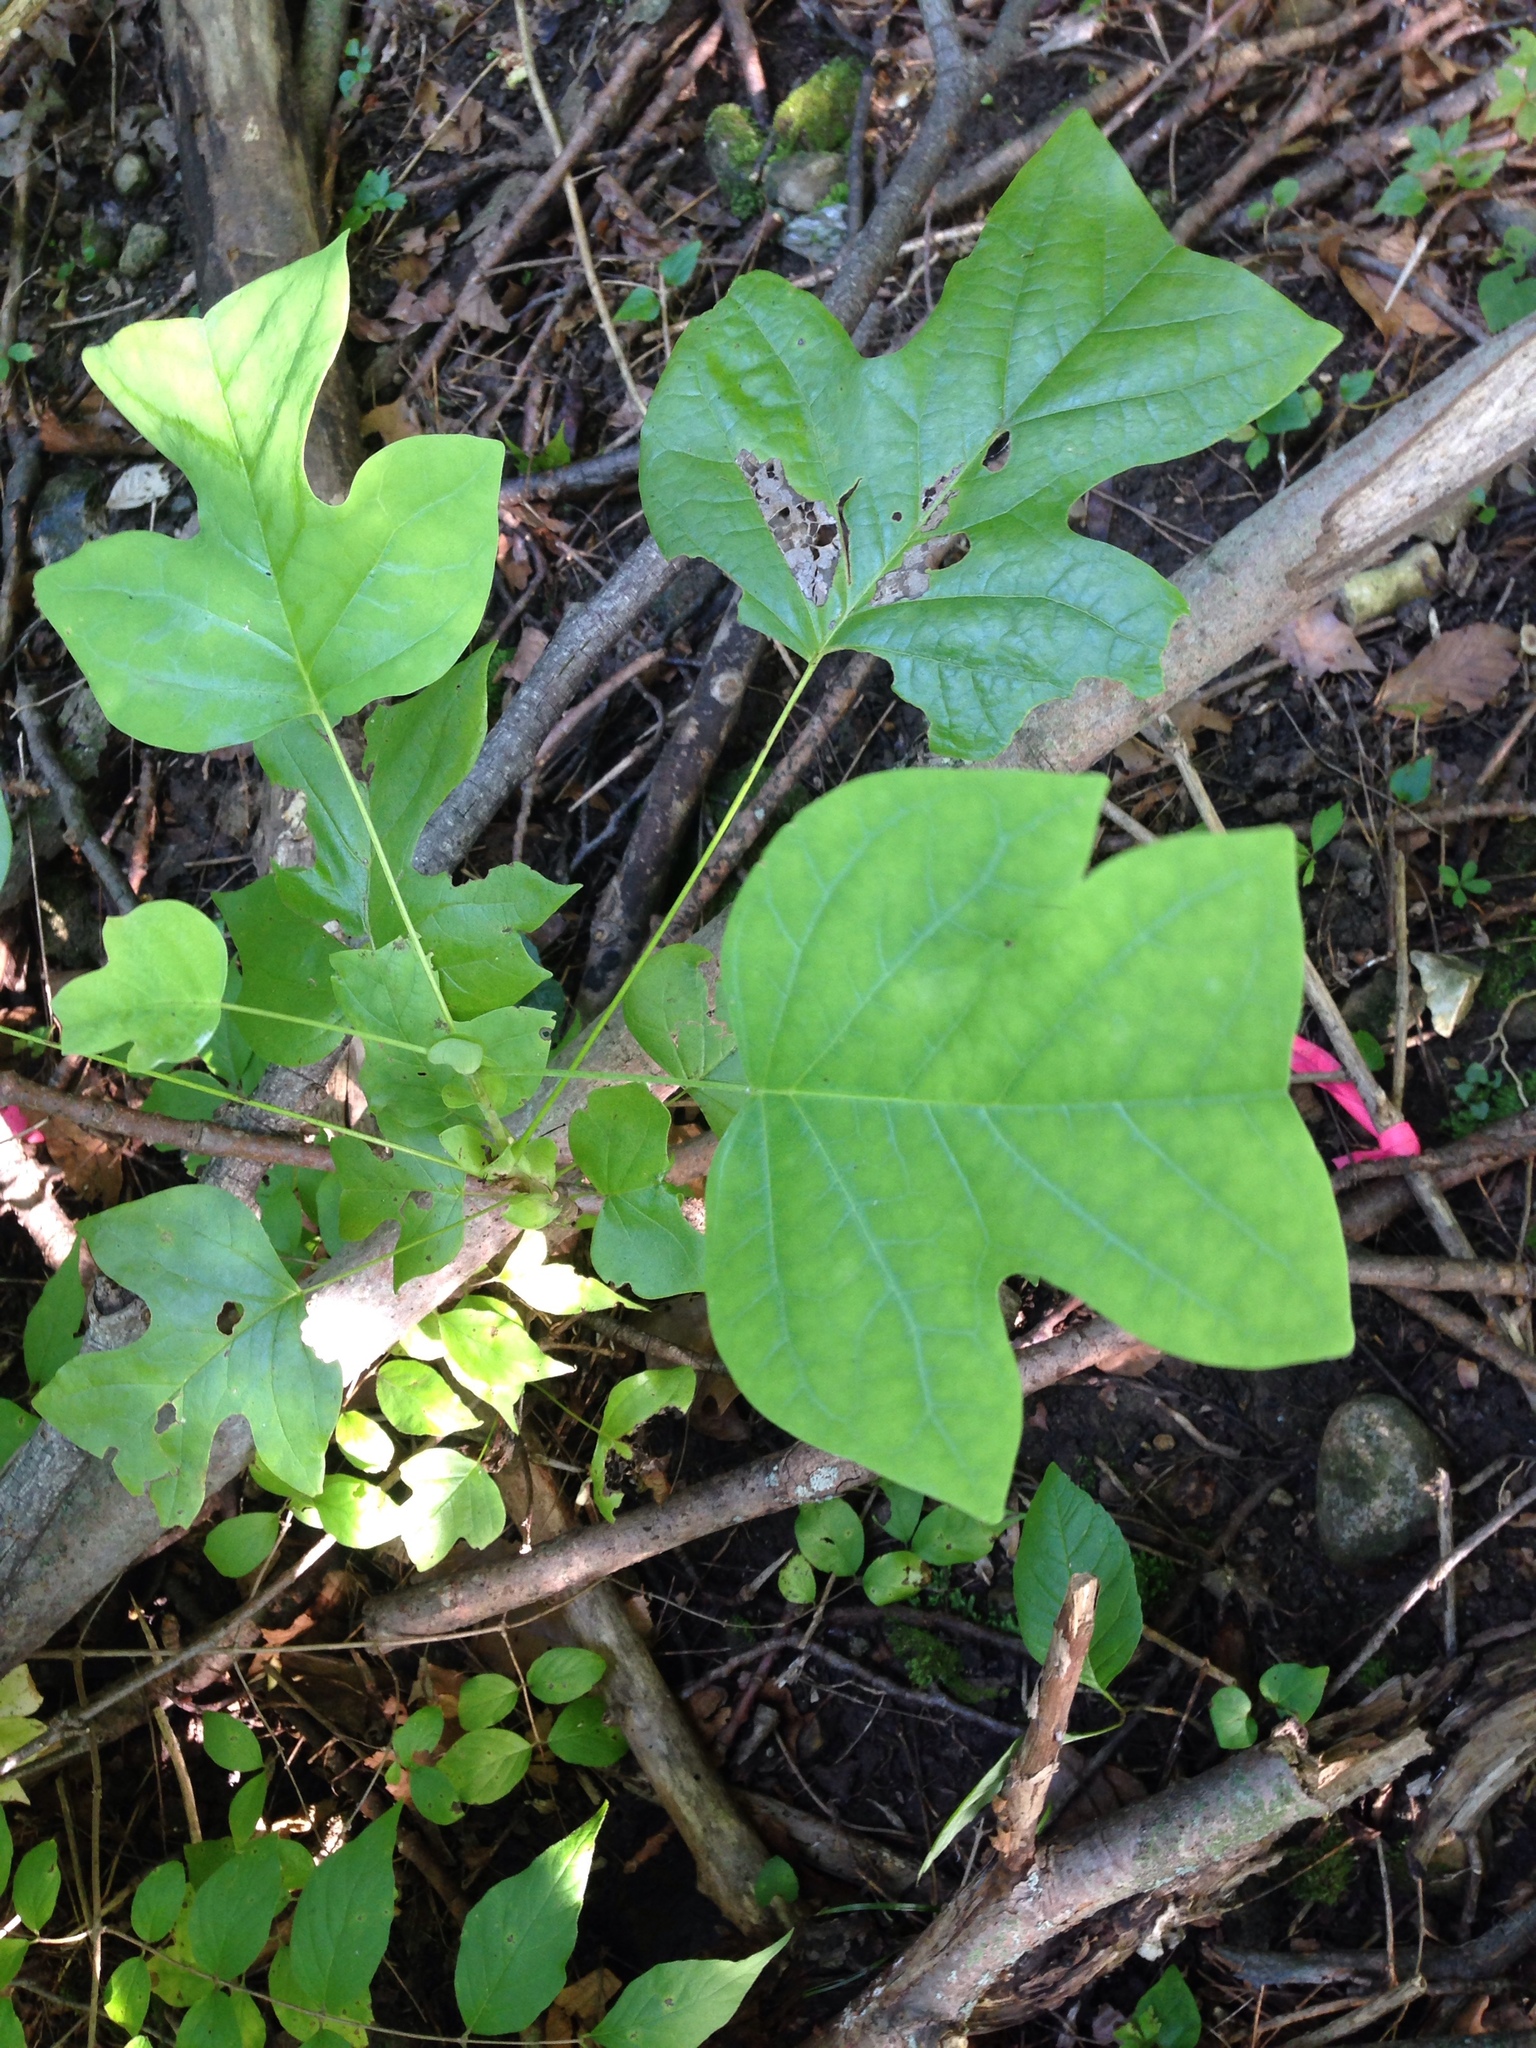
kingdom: Plantae
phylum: Tracheophyta
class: Magnoliopsida
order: Magnoliales
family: Magnoliaceae
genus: Liriodendron
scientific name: Liriodendron tulipifera
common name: Tulip tree
